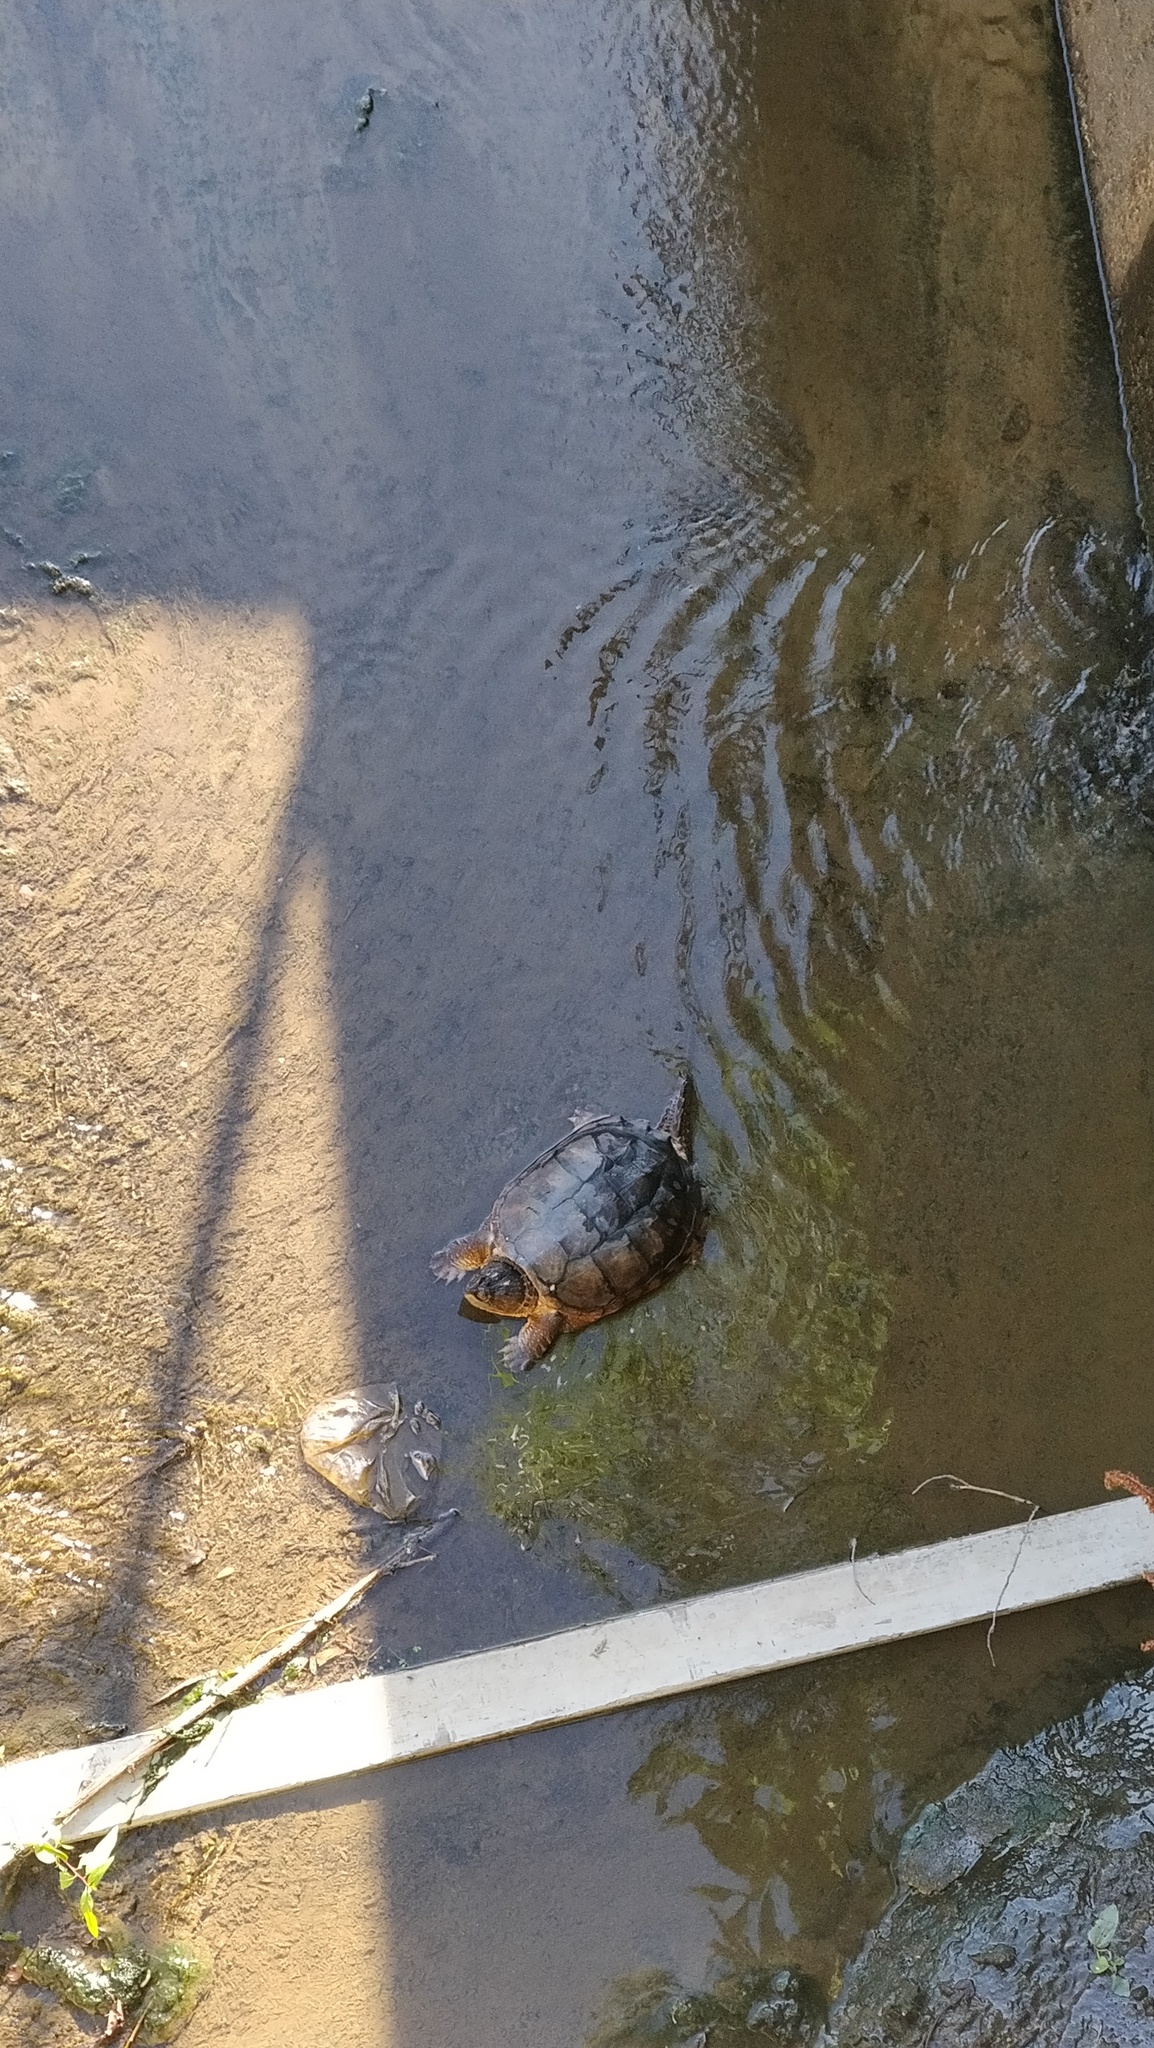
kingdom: Animalia
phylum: Chordata
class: Testudines
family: Chelydridae
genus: Chelydra
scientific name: Chelydra serpentina
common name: Common snapping turtle
